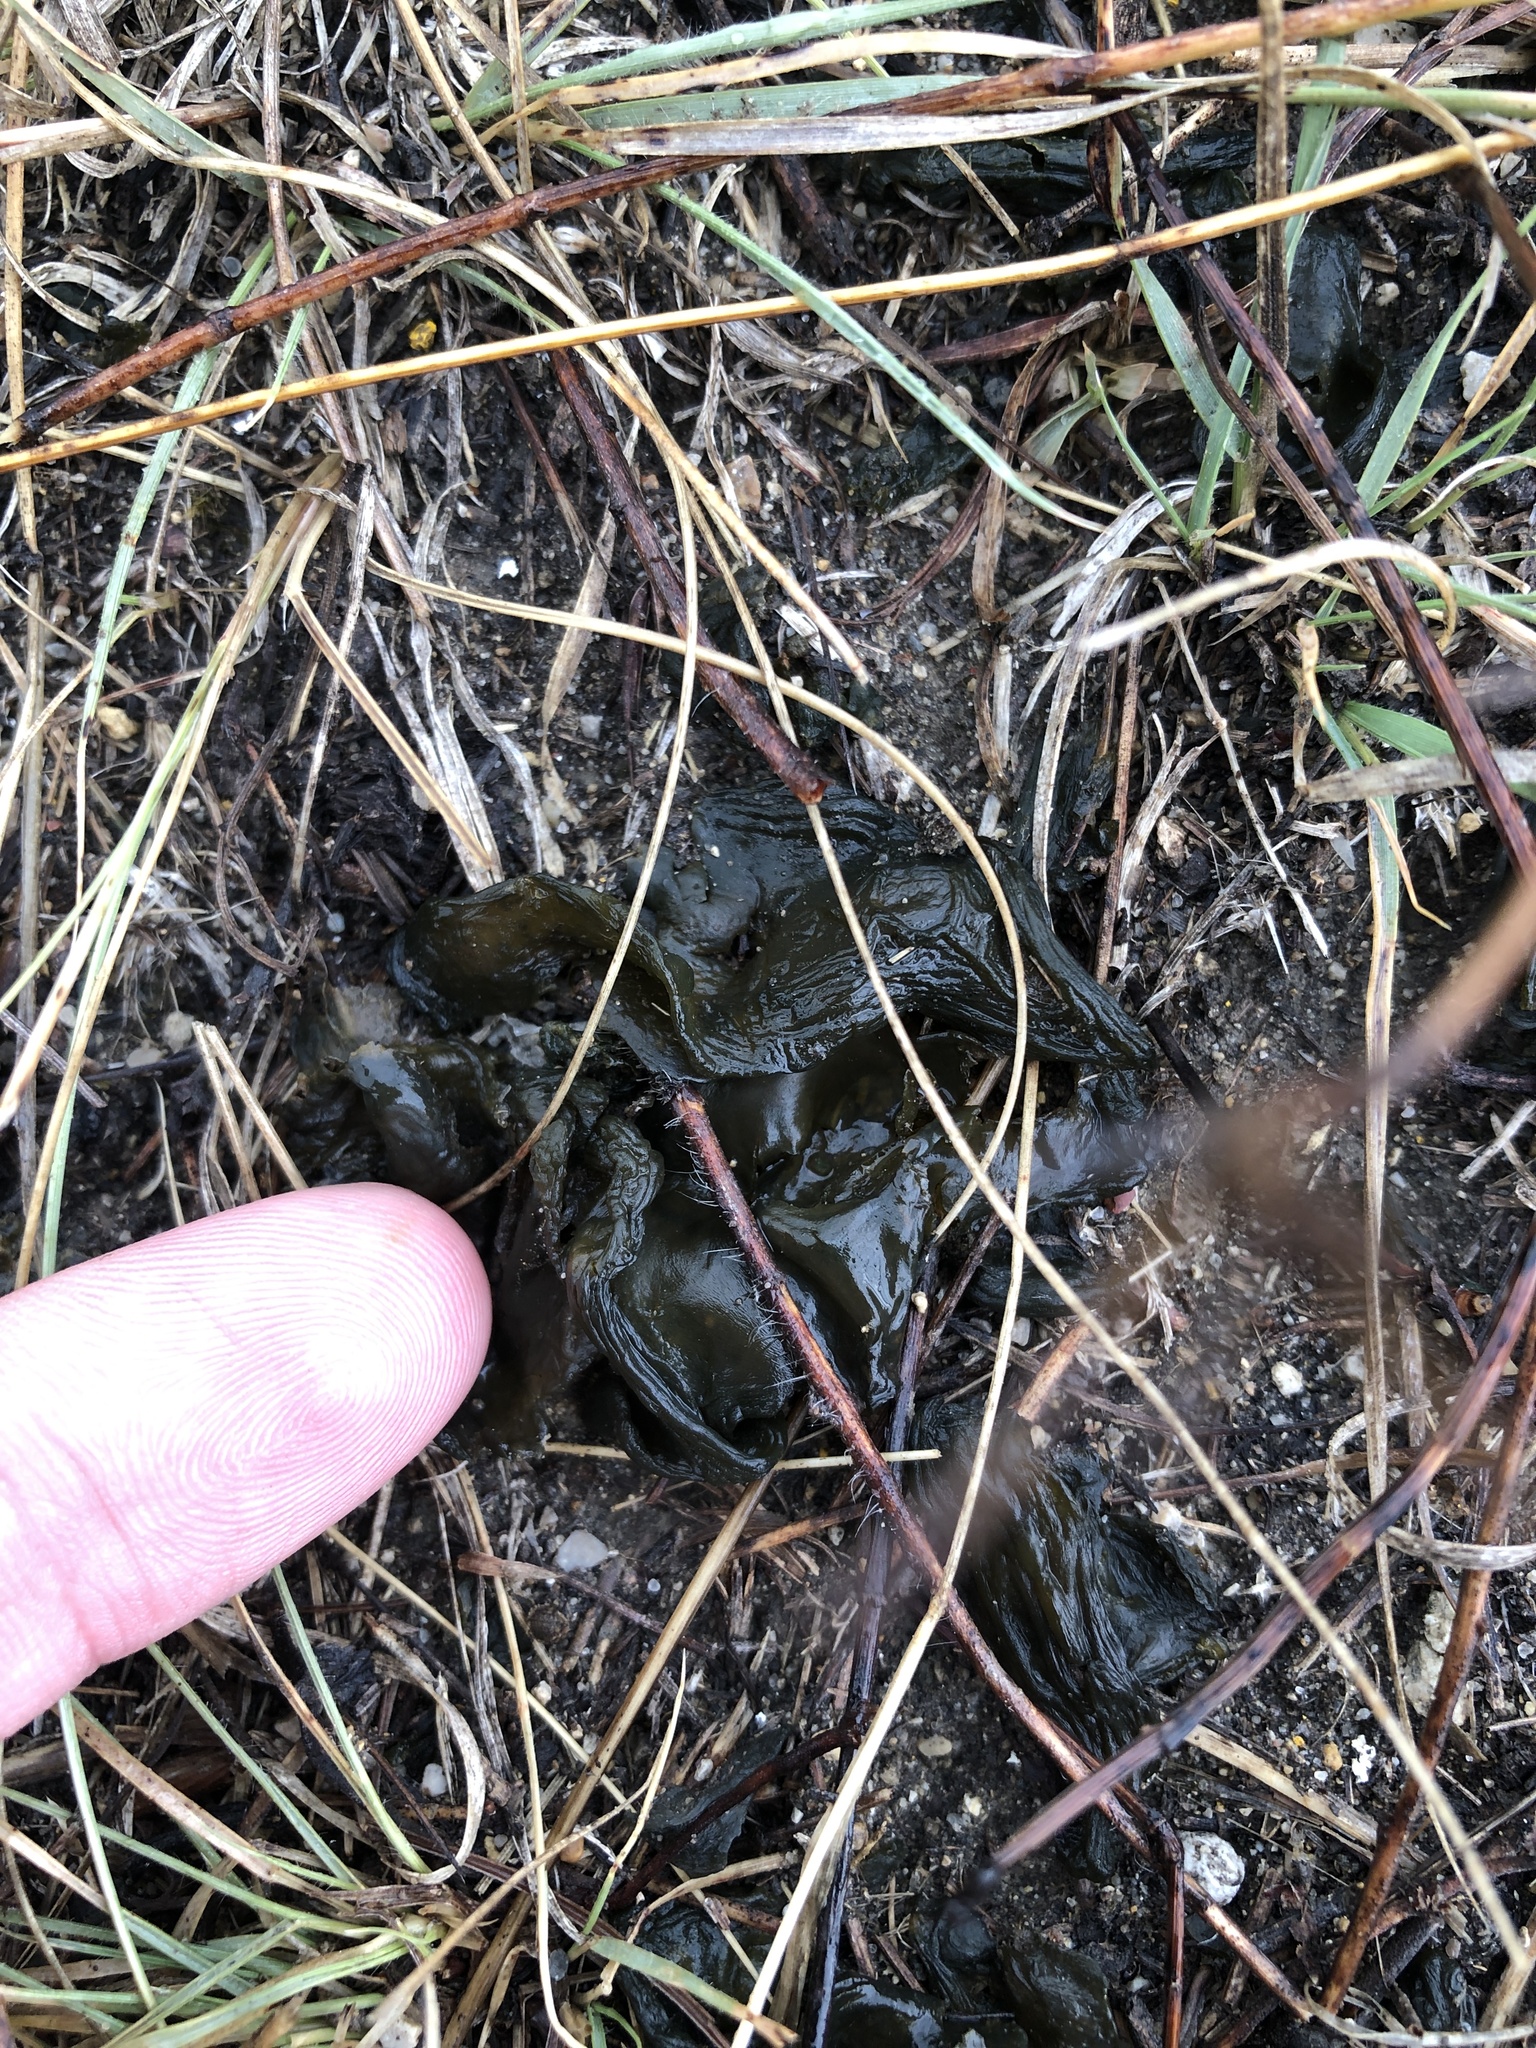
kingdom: Bacteria
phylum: Cyanobacteria
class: Cyanobacteriia
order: Cyanobacteriales
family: Nostocaceae
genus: Nostoc
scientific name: Nostoc commune
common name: Star jelly
